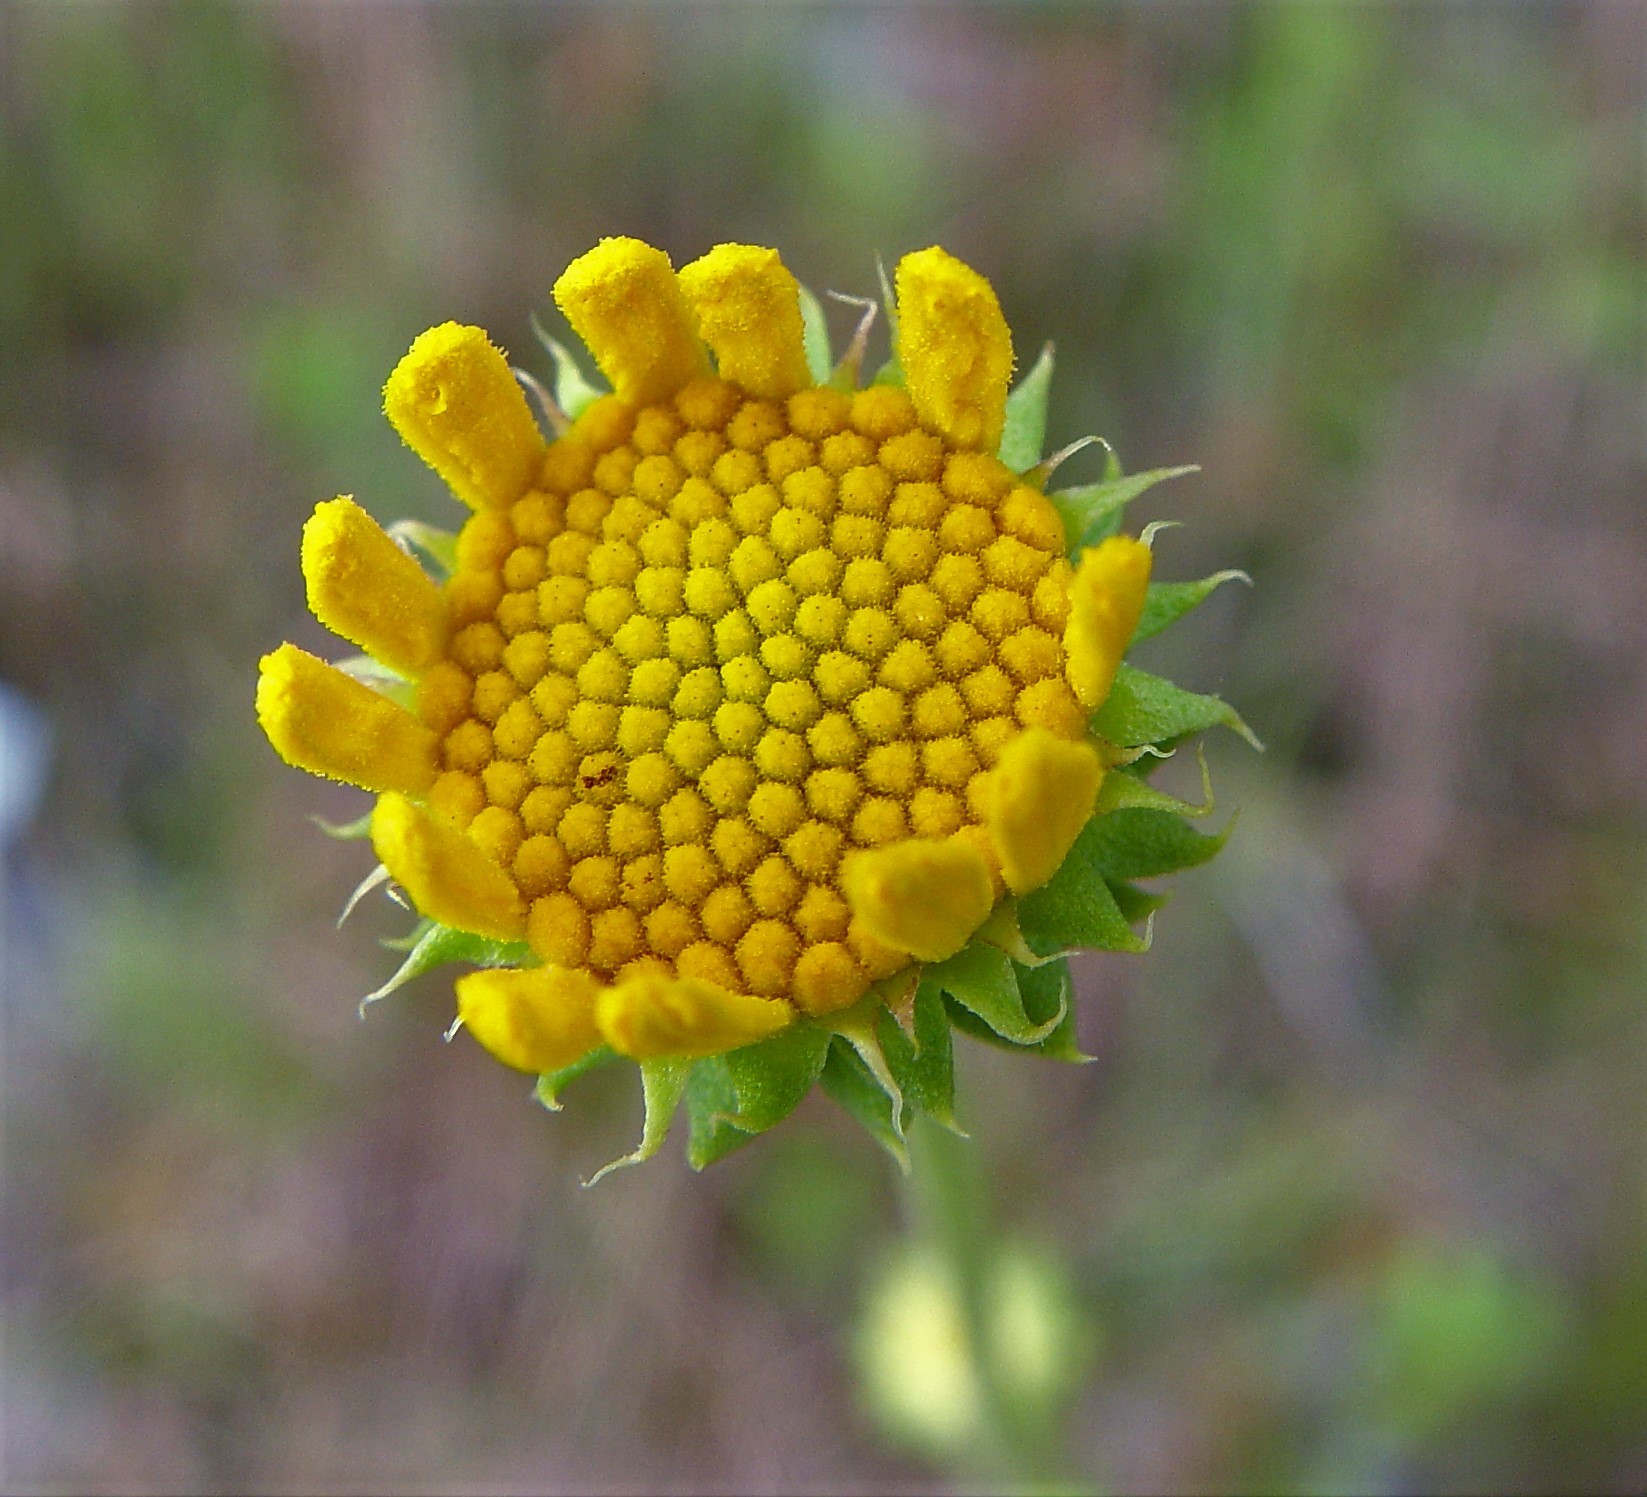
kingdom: Plantae
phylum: Tracheophyta
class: Magnoliopsida
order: Asterales
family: Asteraceae
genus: Balduina
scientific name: Balduina uniflora
